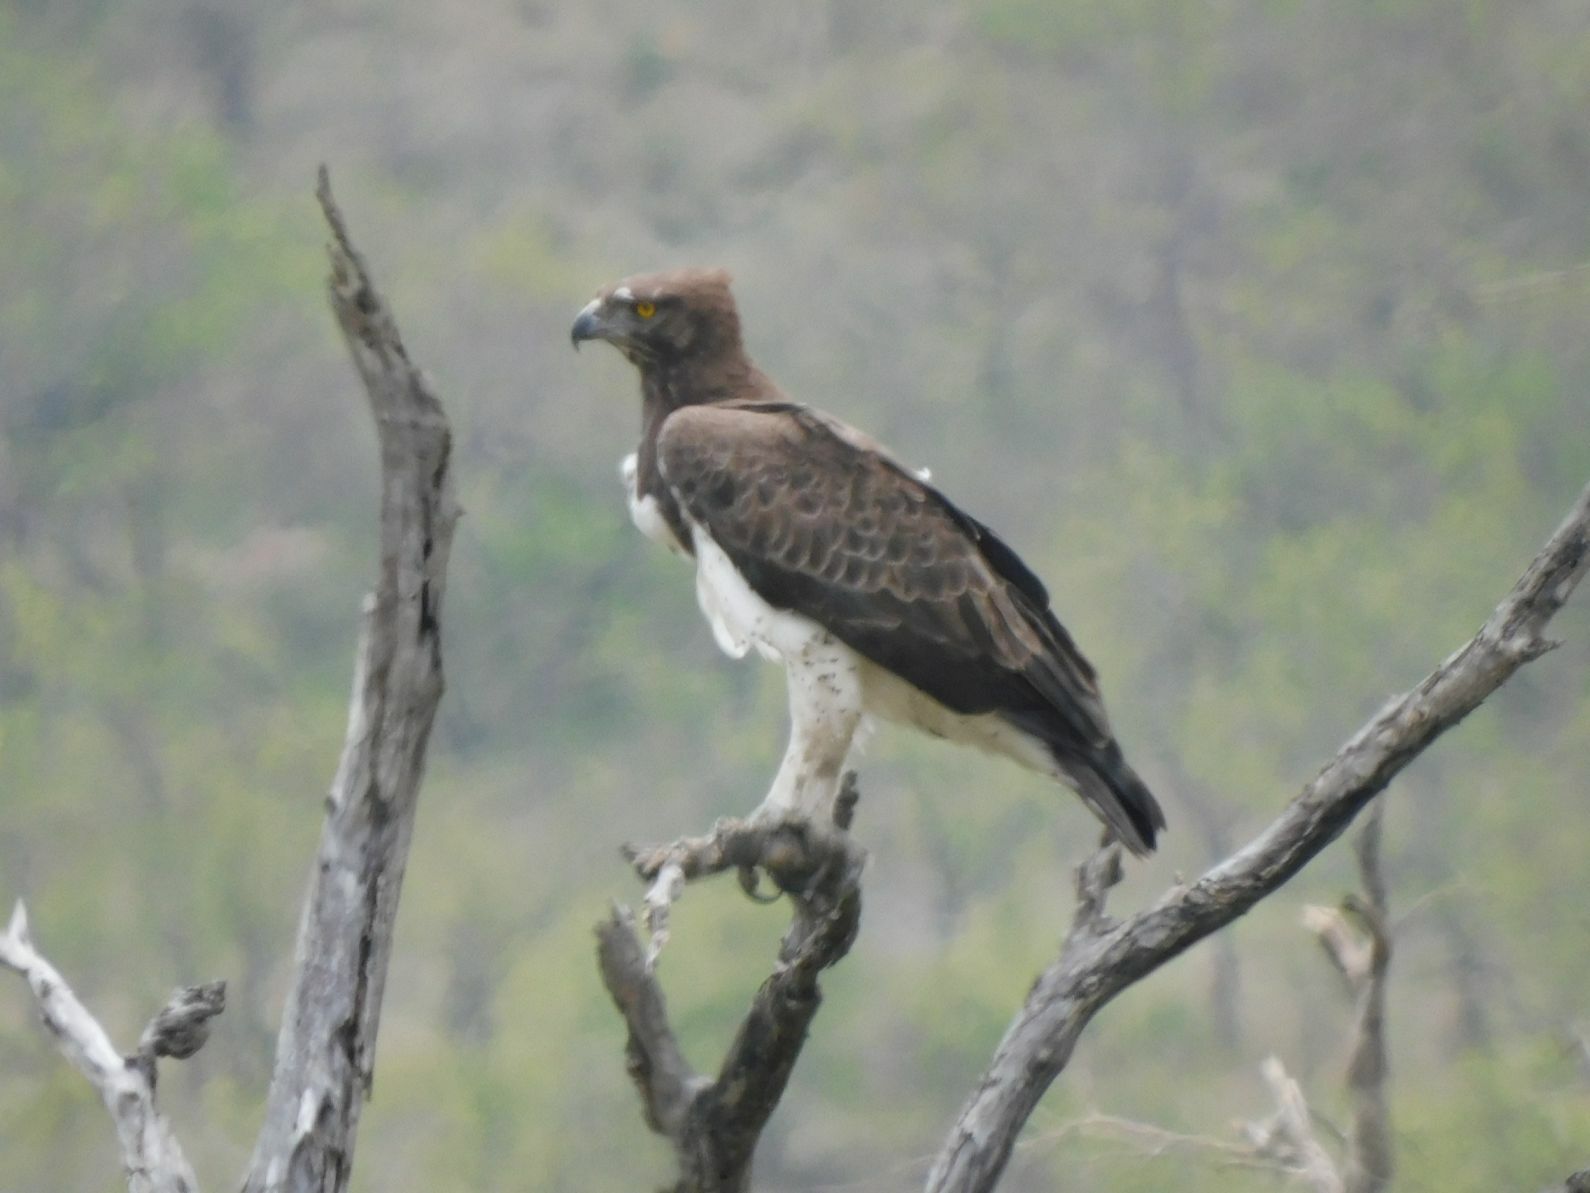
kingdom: Animalia
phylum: Chordata
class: Aves
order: Accipitriformes
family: Accipitridae
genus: Polemaetus
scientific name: Polemaetus bellicosus
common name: Martial eagle
